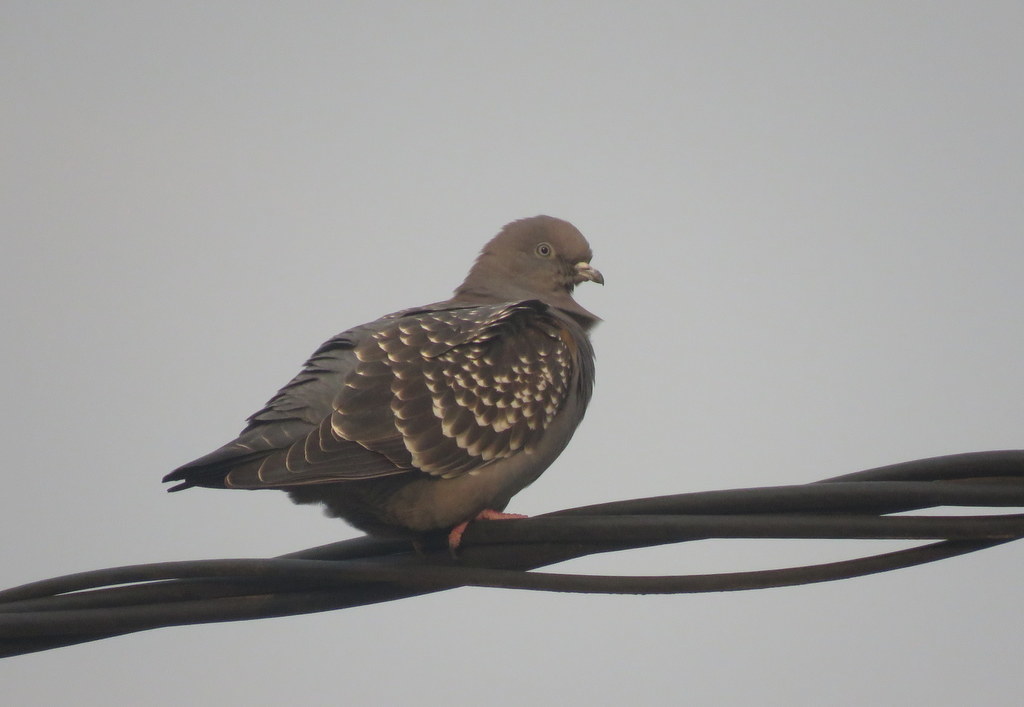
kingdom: Animalia
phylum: Chordata
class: Aves
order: Columbiformes
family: Columbidae
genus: Patagioenas
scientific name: Patagioenas maculosa
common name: Spot-winged pigeon
